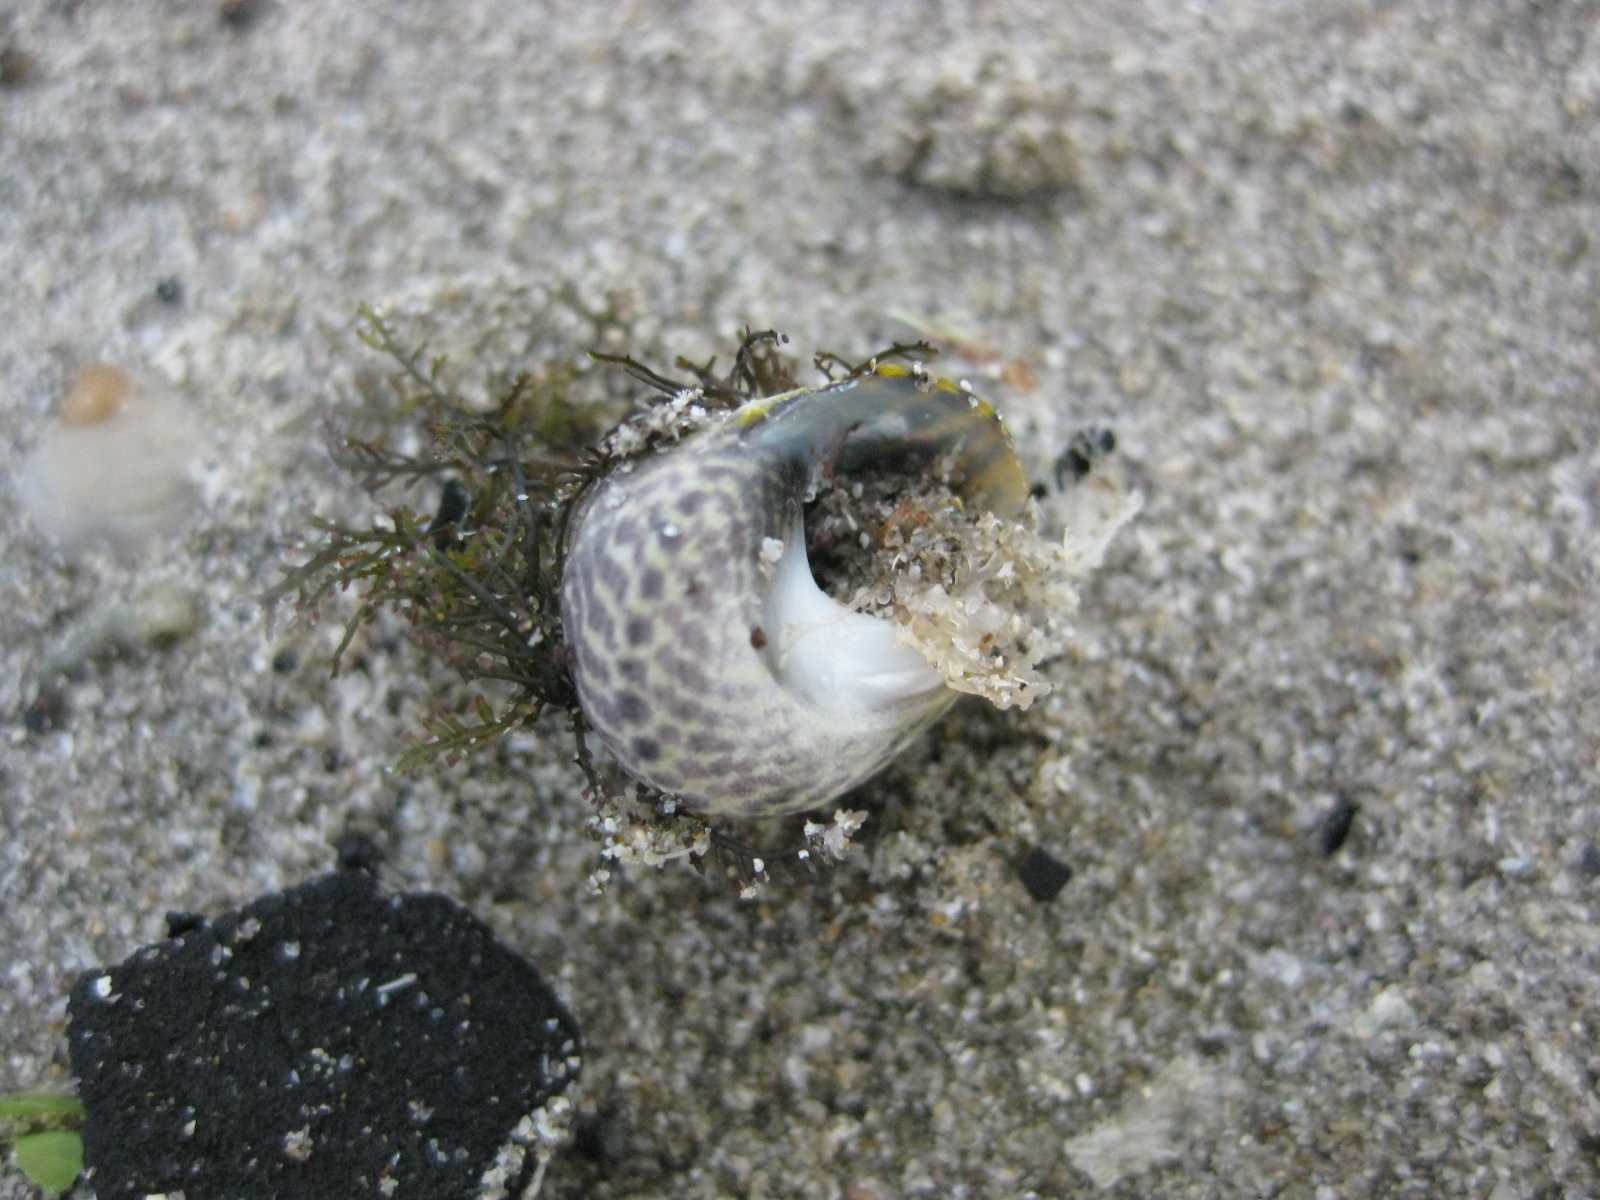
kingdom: Animalia
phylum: Mollusca
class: Gastropoda
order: Trochida
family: Trochidae
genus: Diloma
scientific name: Diloma subrostratum
